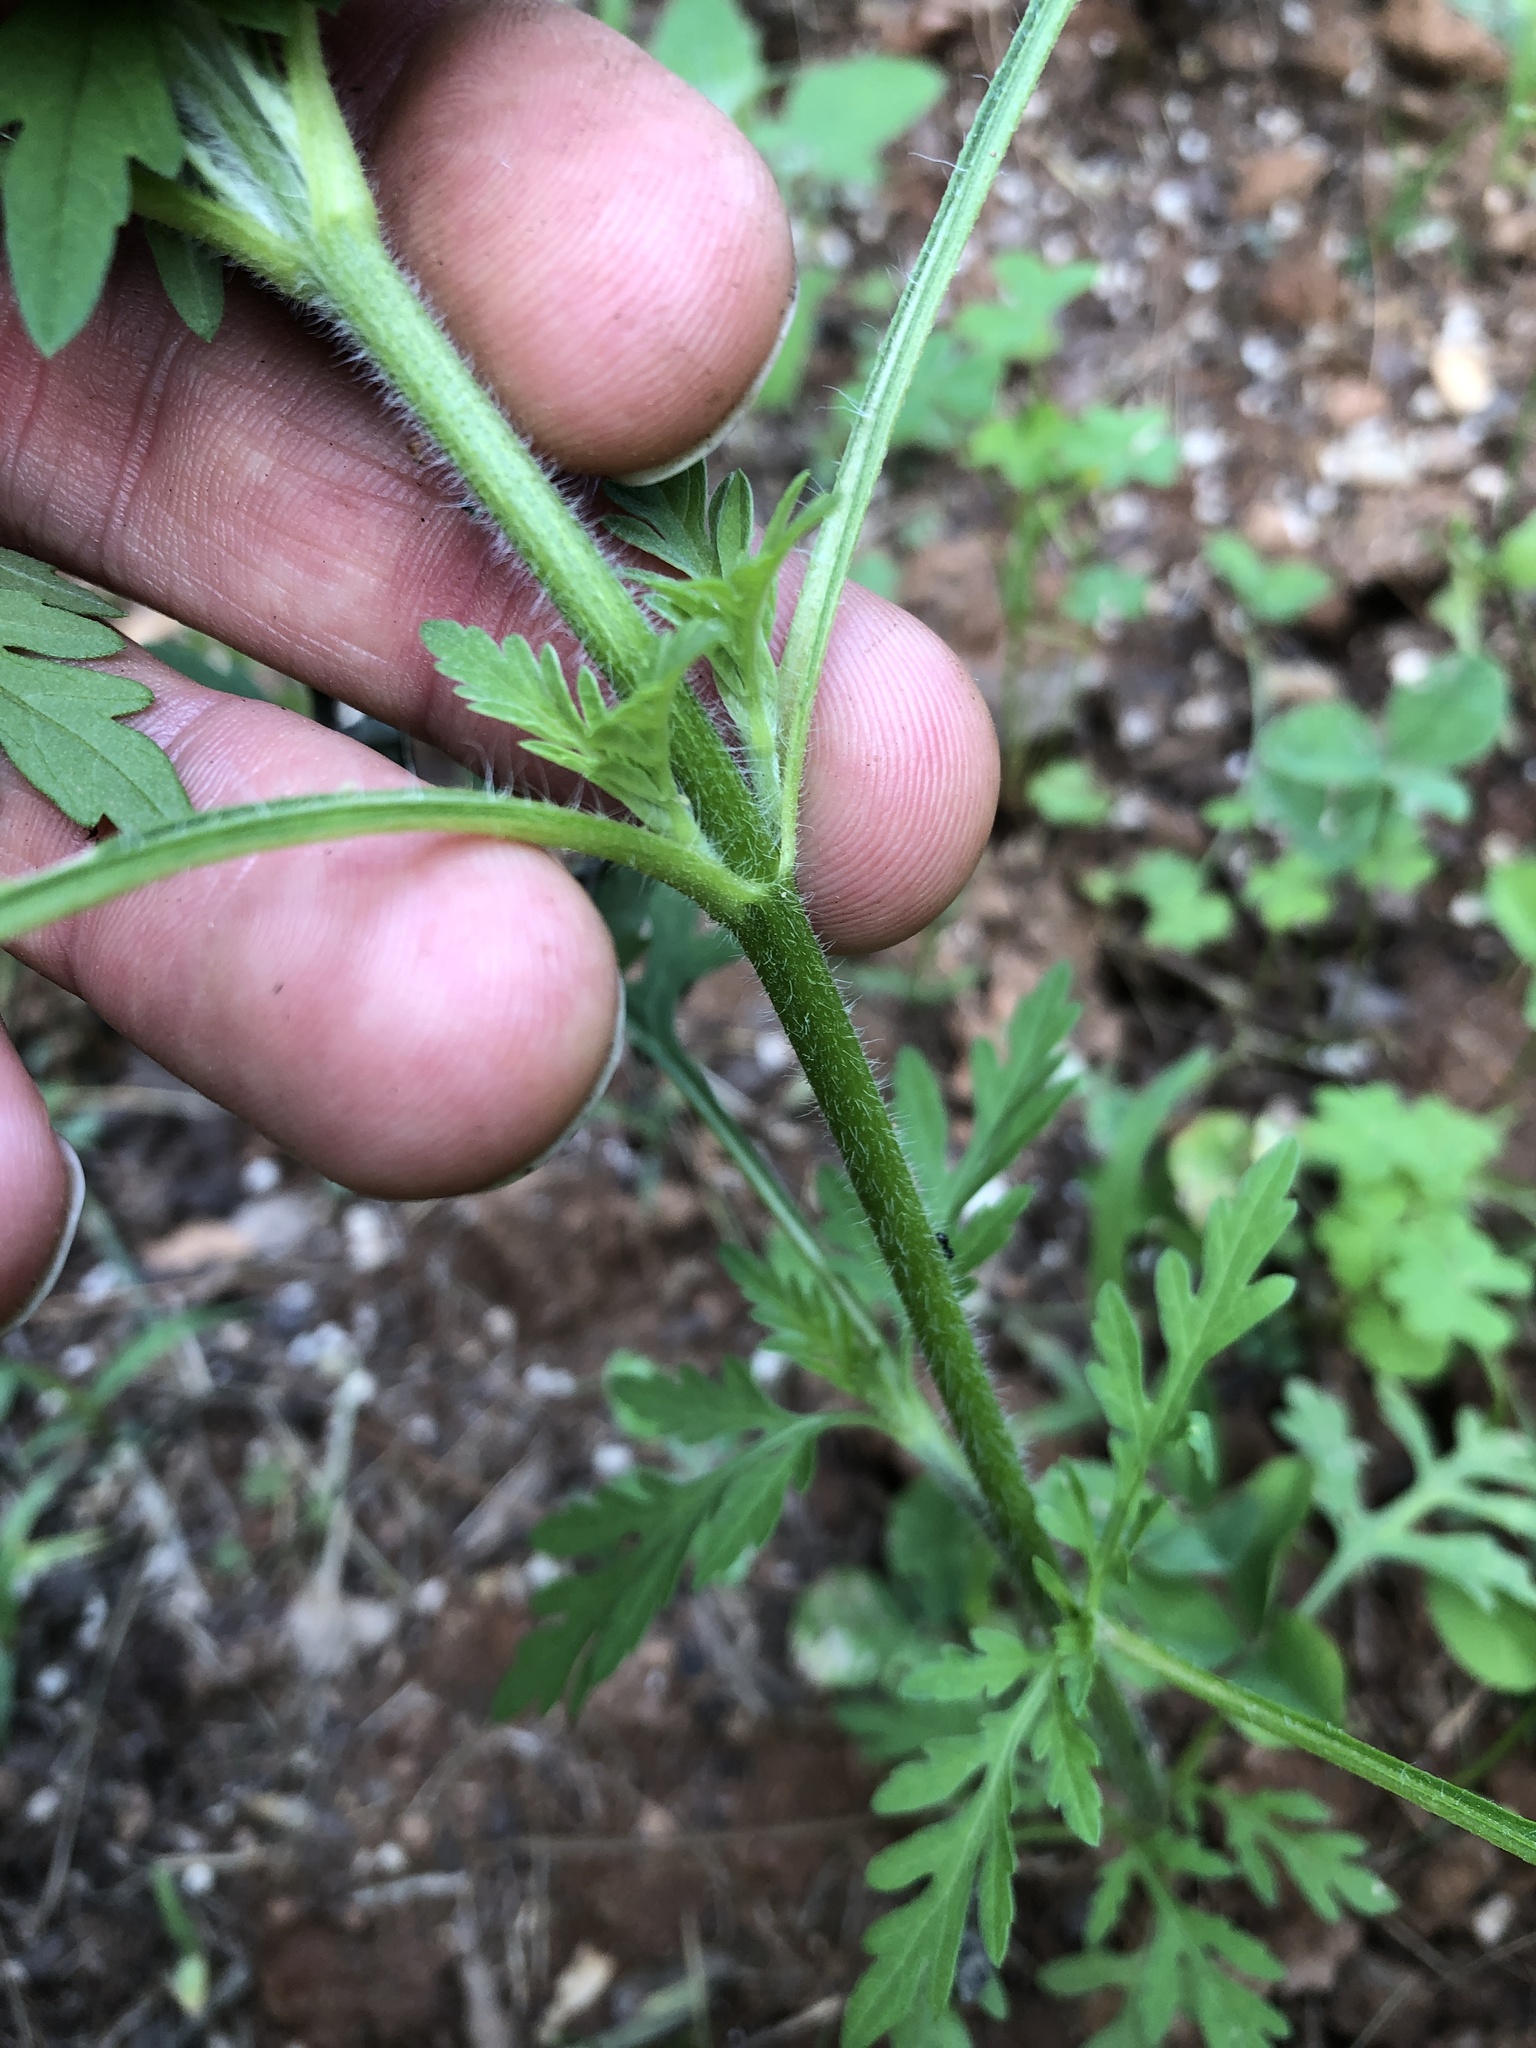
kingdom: Plantae
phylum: Tracheophyta
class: Magnoliopsida
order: Asterales
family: Asteraceae
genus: Ambrosia
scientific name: Ambrosia artemisiifolia
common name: Annual ragweed
